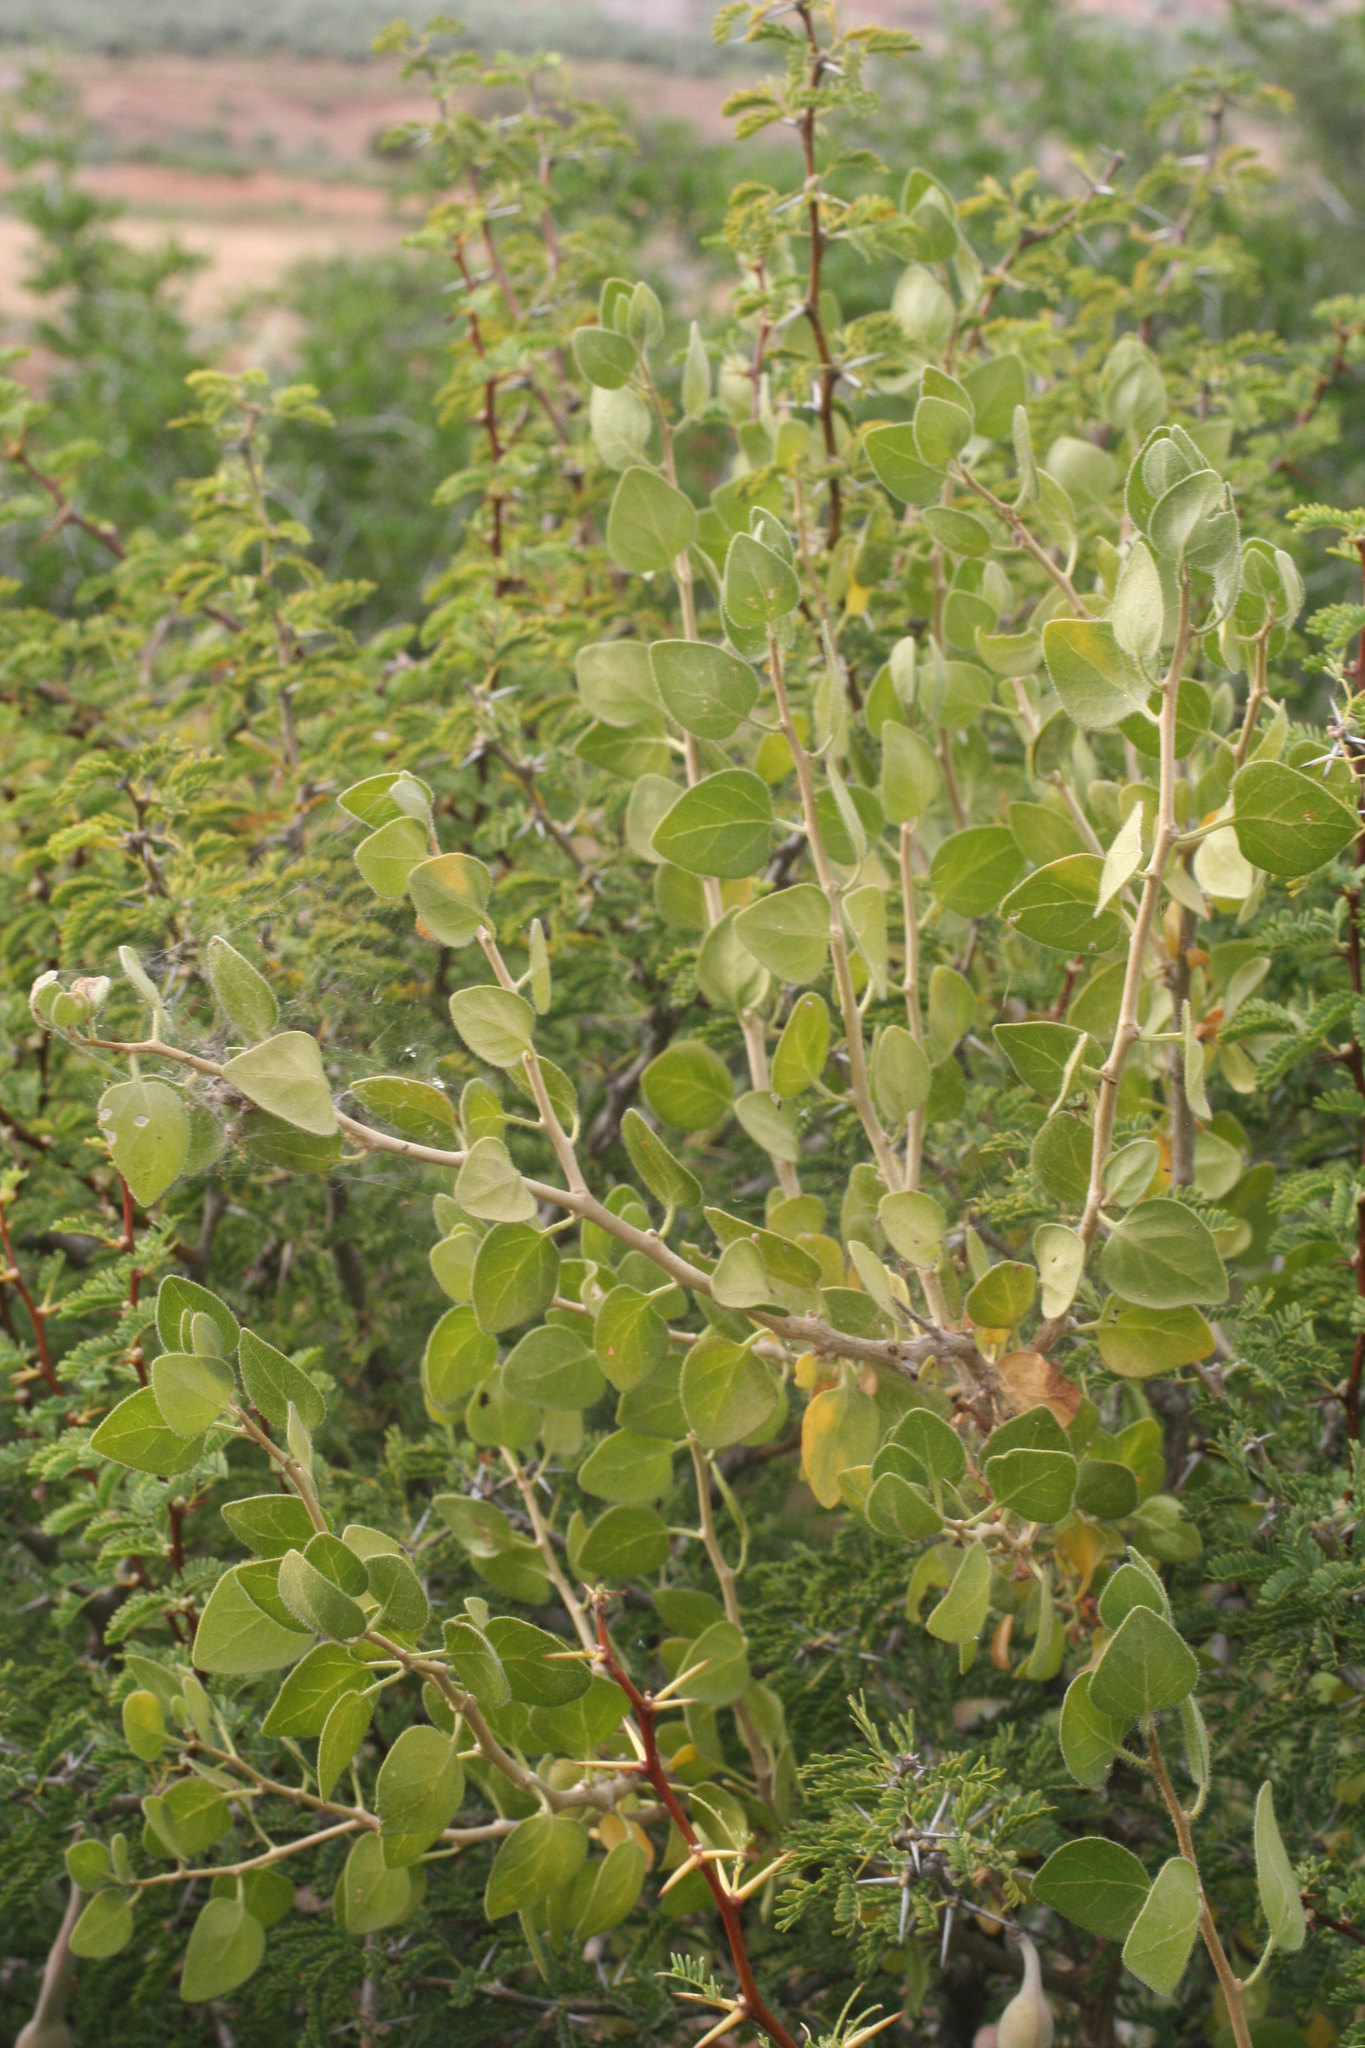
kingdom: Plantae
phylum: Tracheophyta
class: Magnoliopsida
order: Solanales
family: Solanaceae
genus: Withania
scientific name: Withania frutescens
